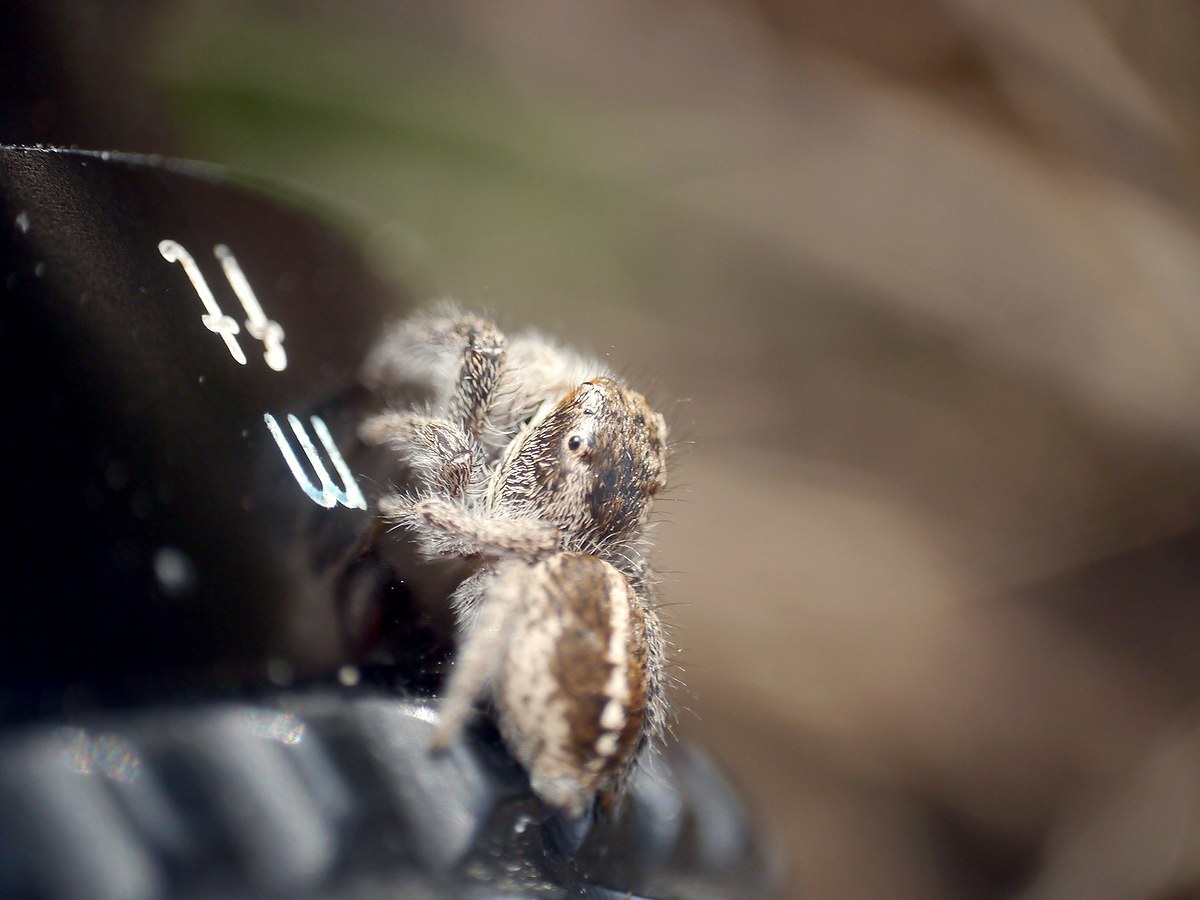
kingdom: Animalia
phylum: Arthropoda
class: Arachnida
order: Araneae
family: Salticidae
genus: Pellenes
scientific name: Pellenes seriatus
